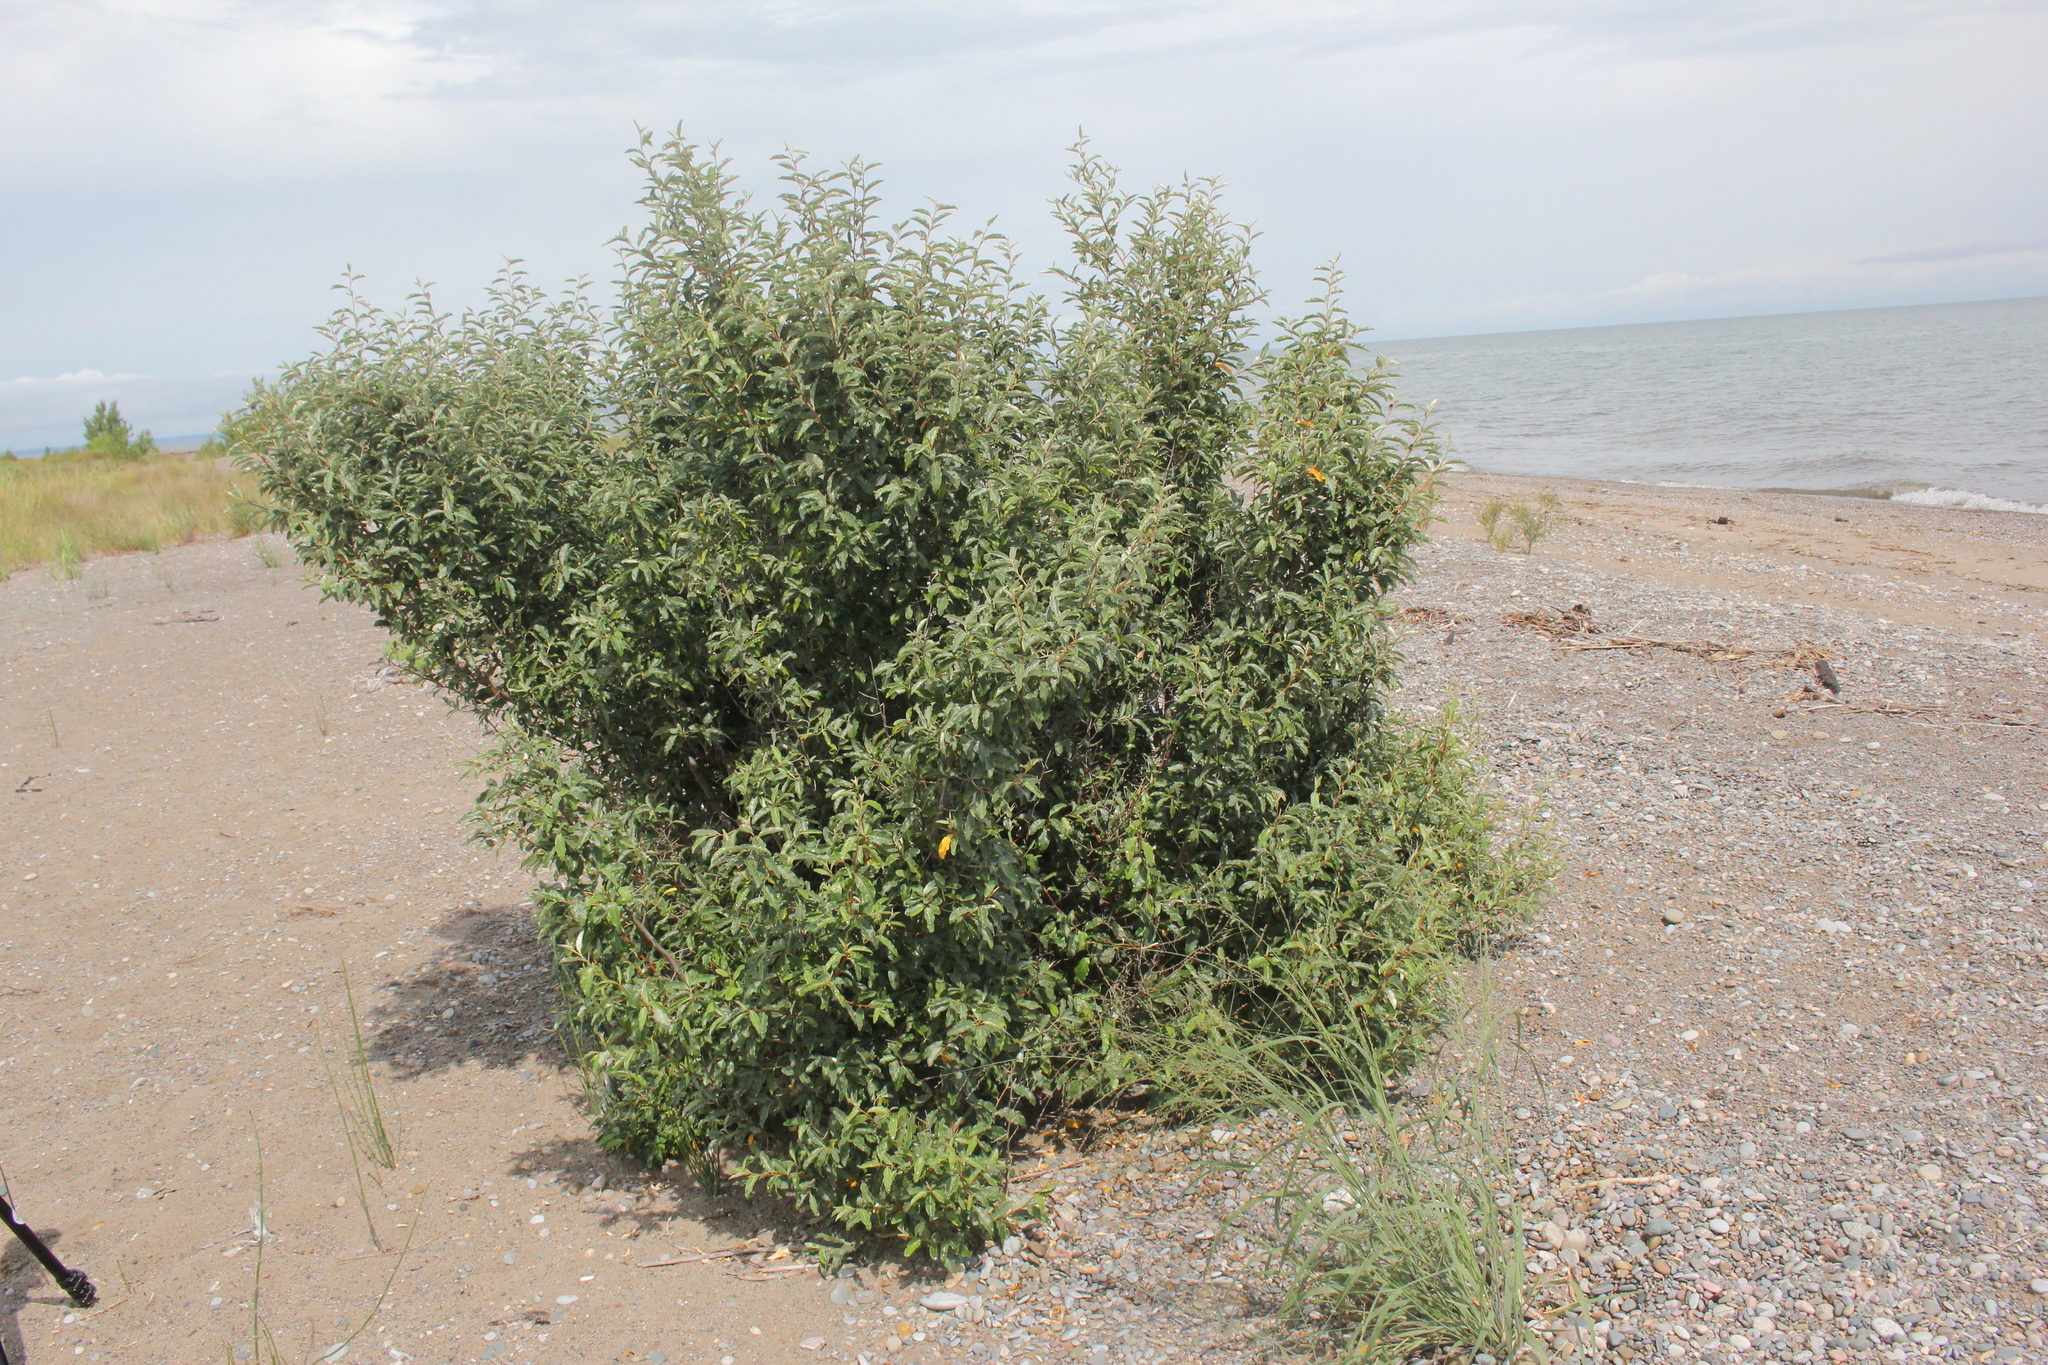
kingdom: Plantae
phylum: Tracheophyta
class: Magnoliopsida
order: Rosales
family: Elaeagnaceae
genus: Elaeagnus
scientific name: Elaeagnus umbellata
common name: Autumn olive
